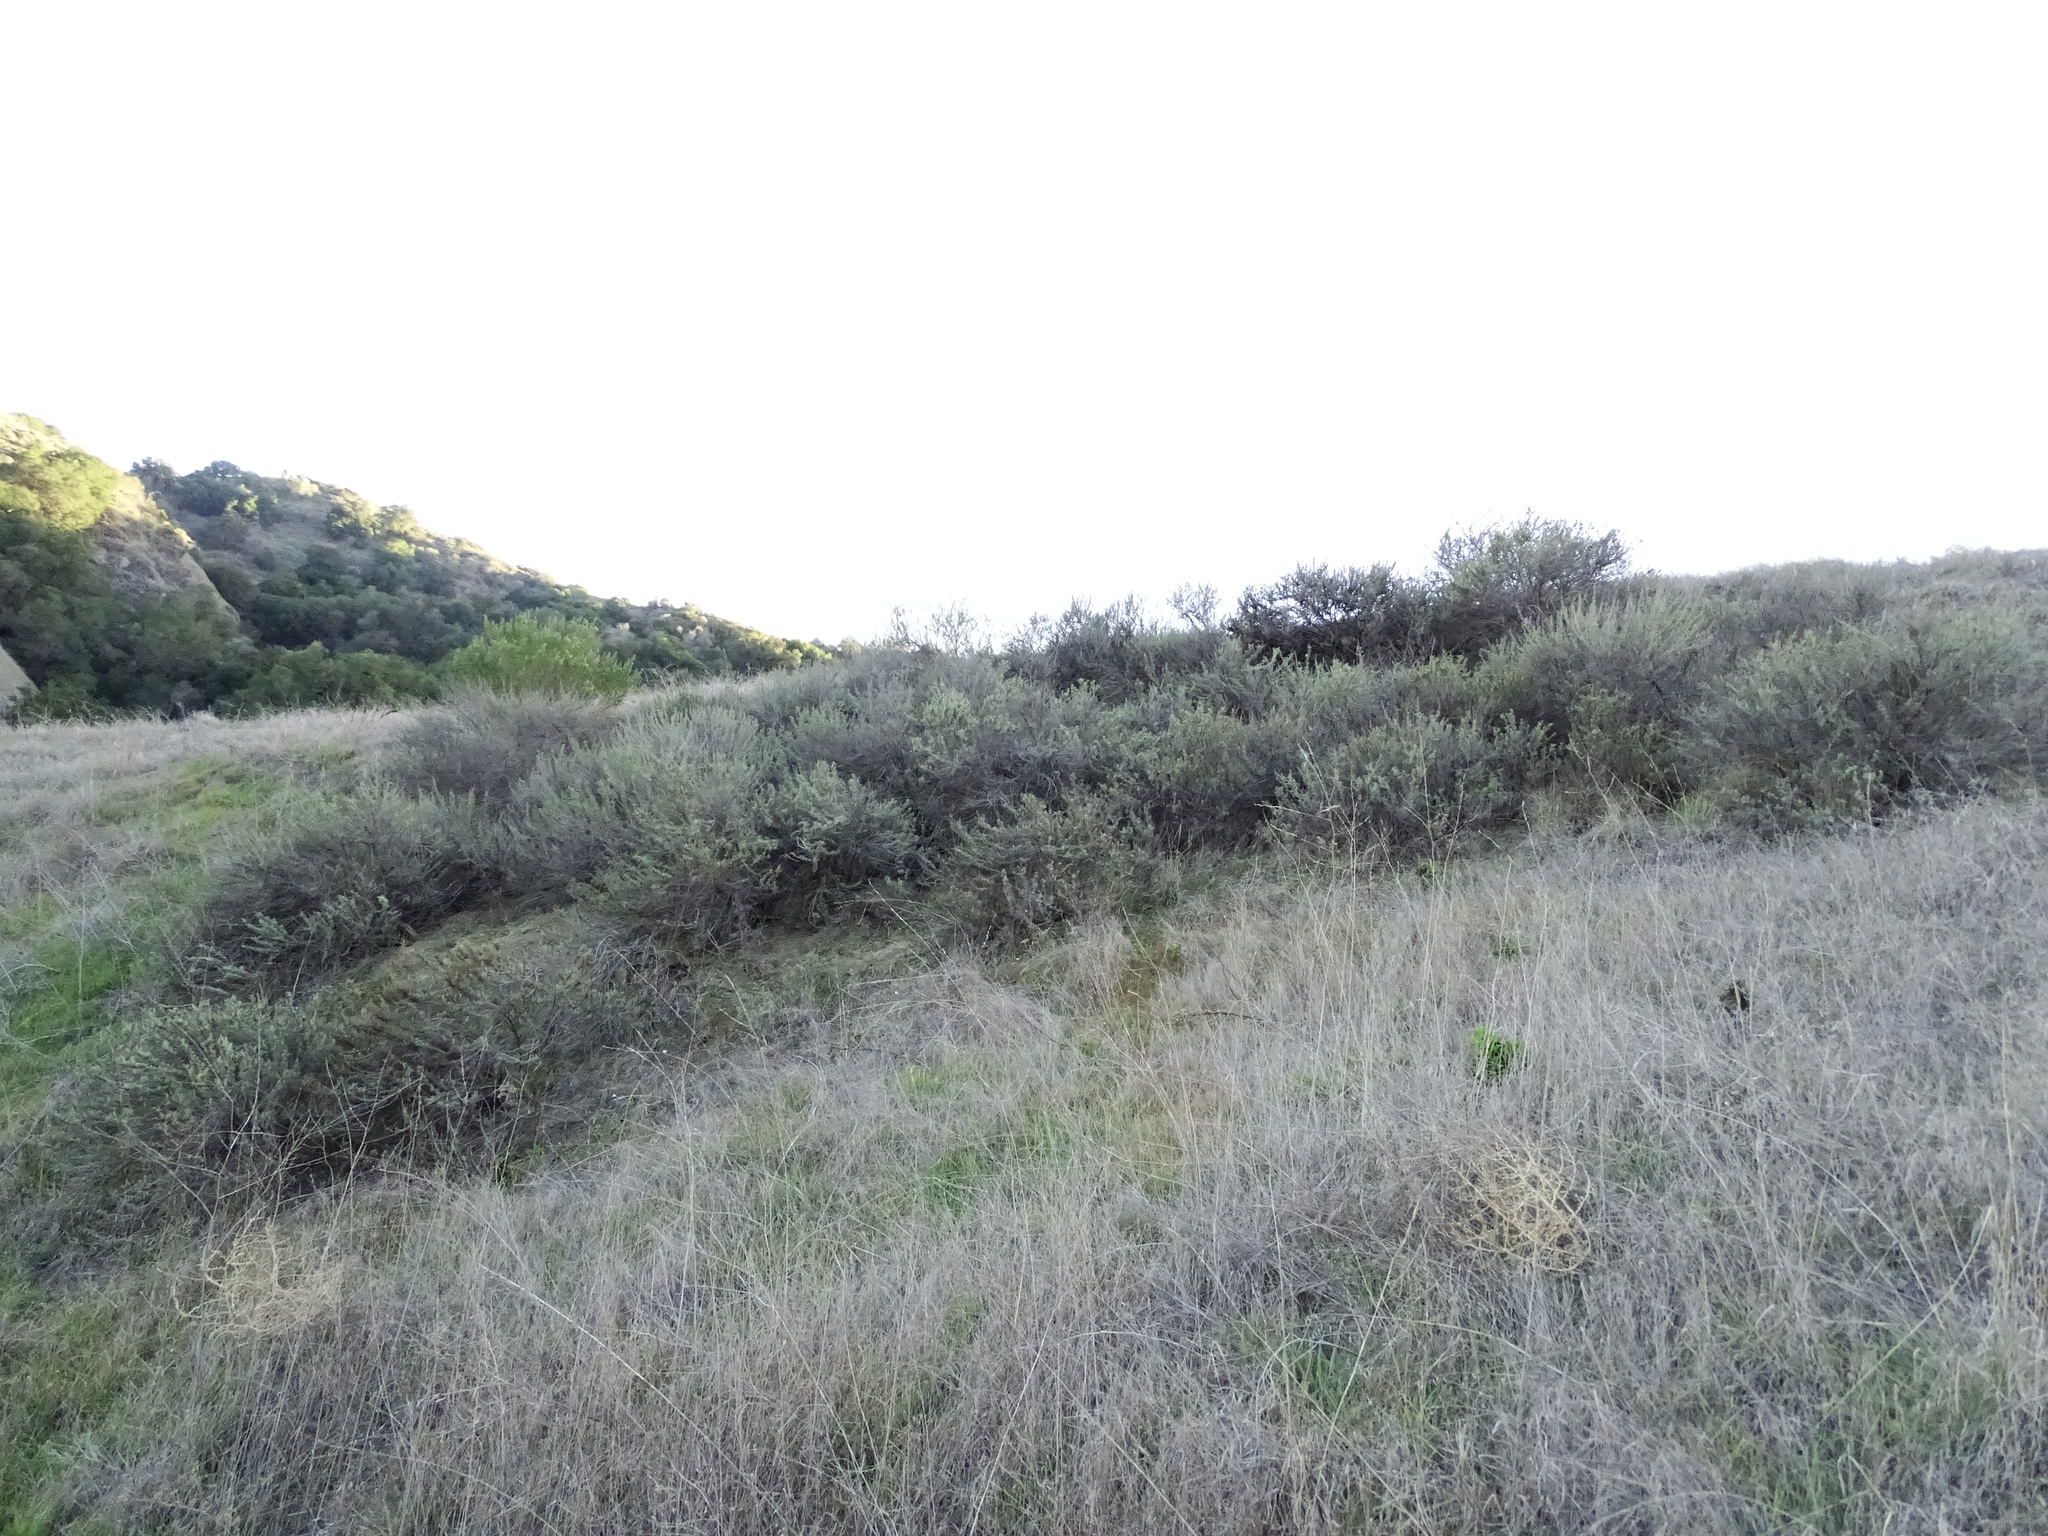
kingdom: Plantae
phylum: Tracheophyta
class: Magnoliopsida
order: Asterales
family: Asteraceae
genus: Artemisia
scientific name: Artemisia californica
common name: California sagebrush
